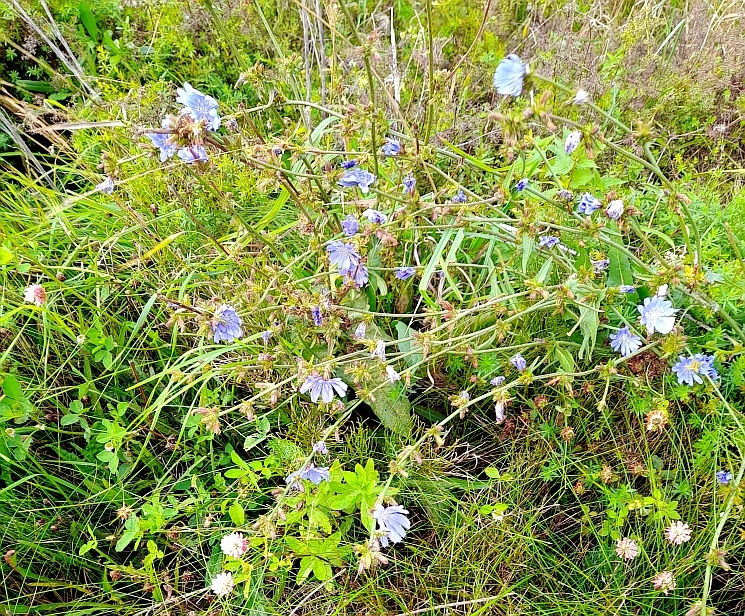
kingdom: Plantae
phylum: Tracheophyta
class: Magnoliopsida
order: Asterales
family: Asteraceae
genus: Cichorium
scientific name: Cichorium intybus
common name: Chicory
